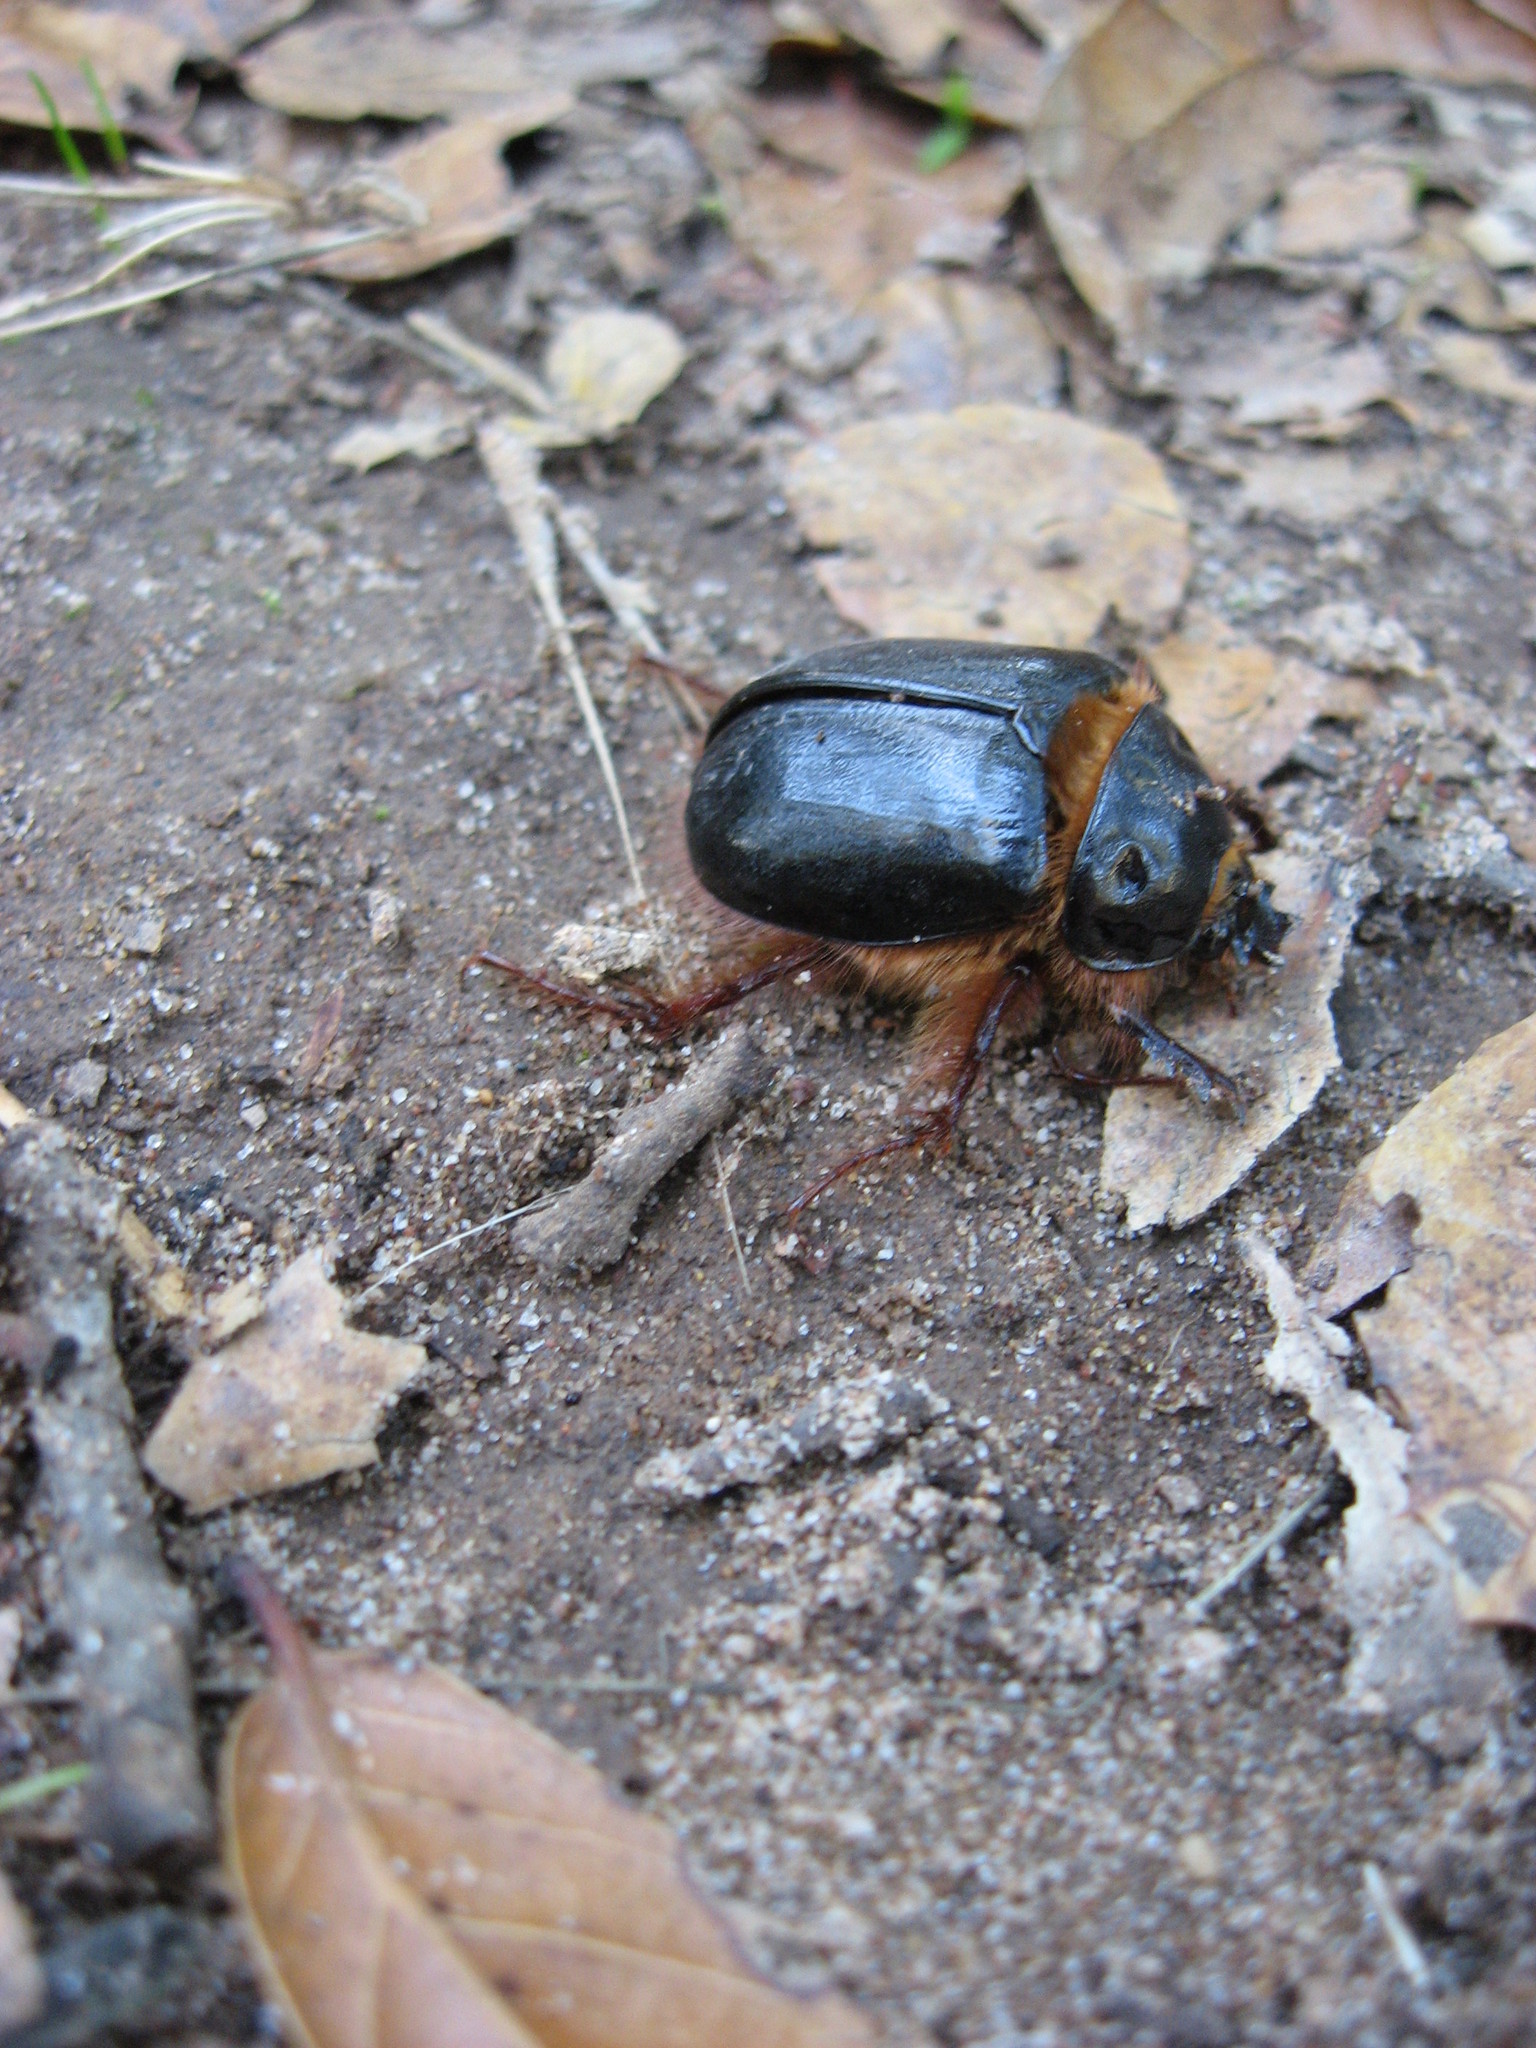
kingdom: Animalia
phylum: Arthropoda
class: Insecta
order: Coleoptera
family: Pleocomidae
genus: Pleocoma
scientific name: Pleocoma conjungens
